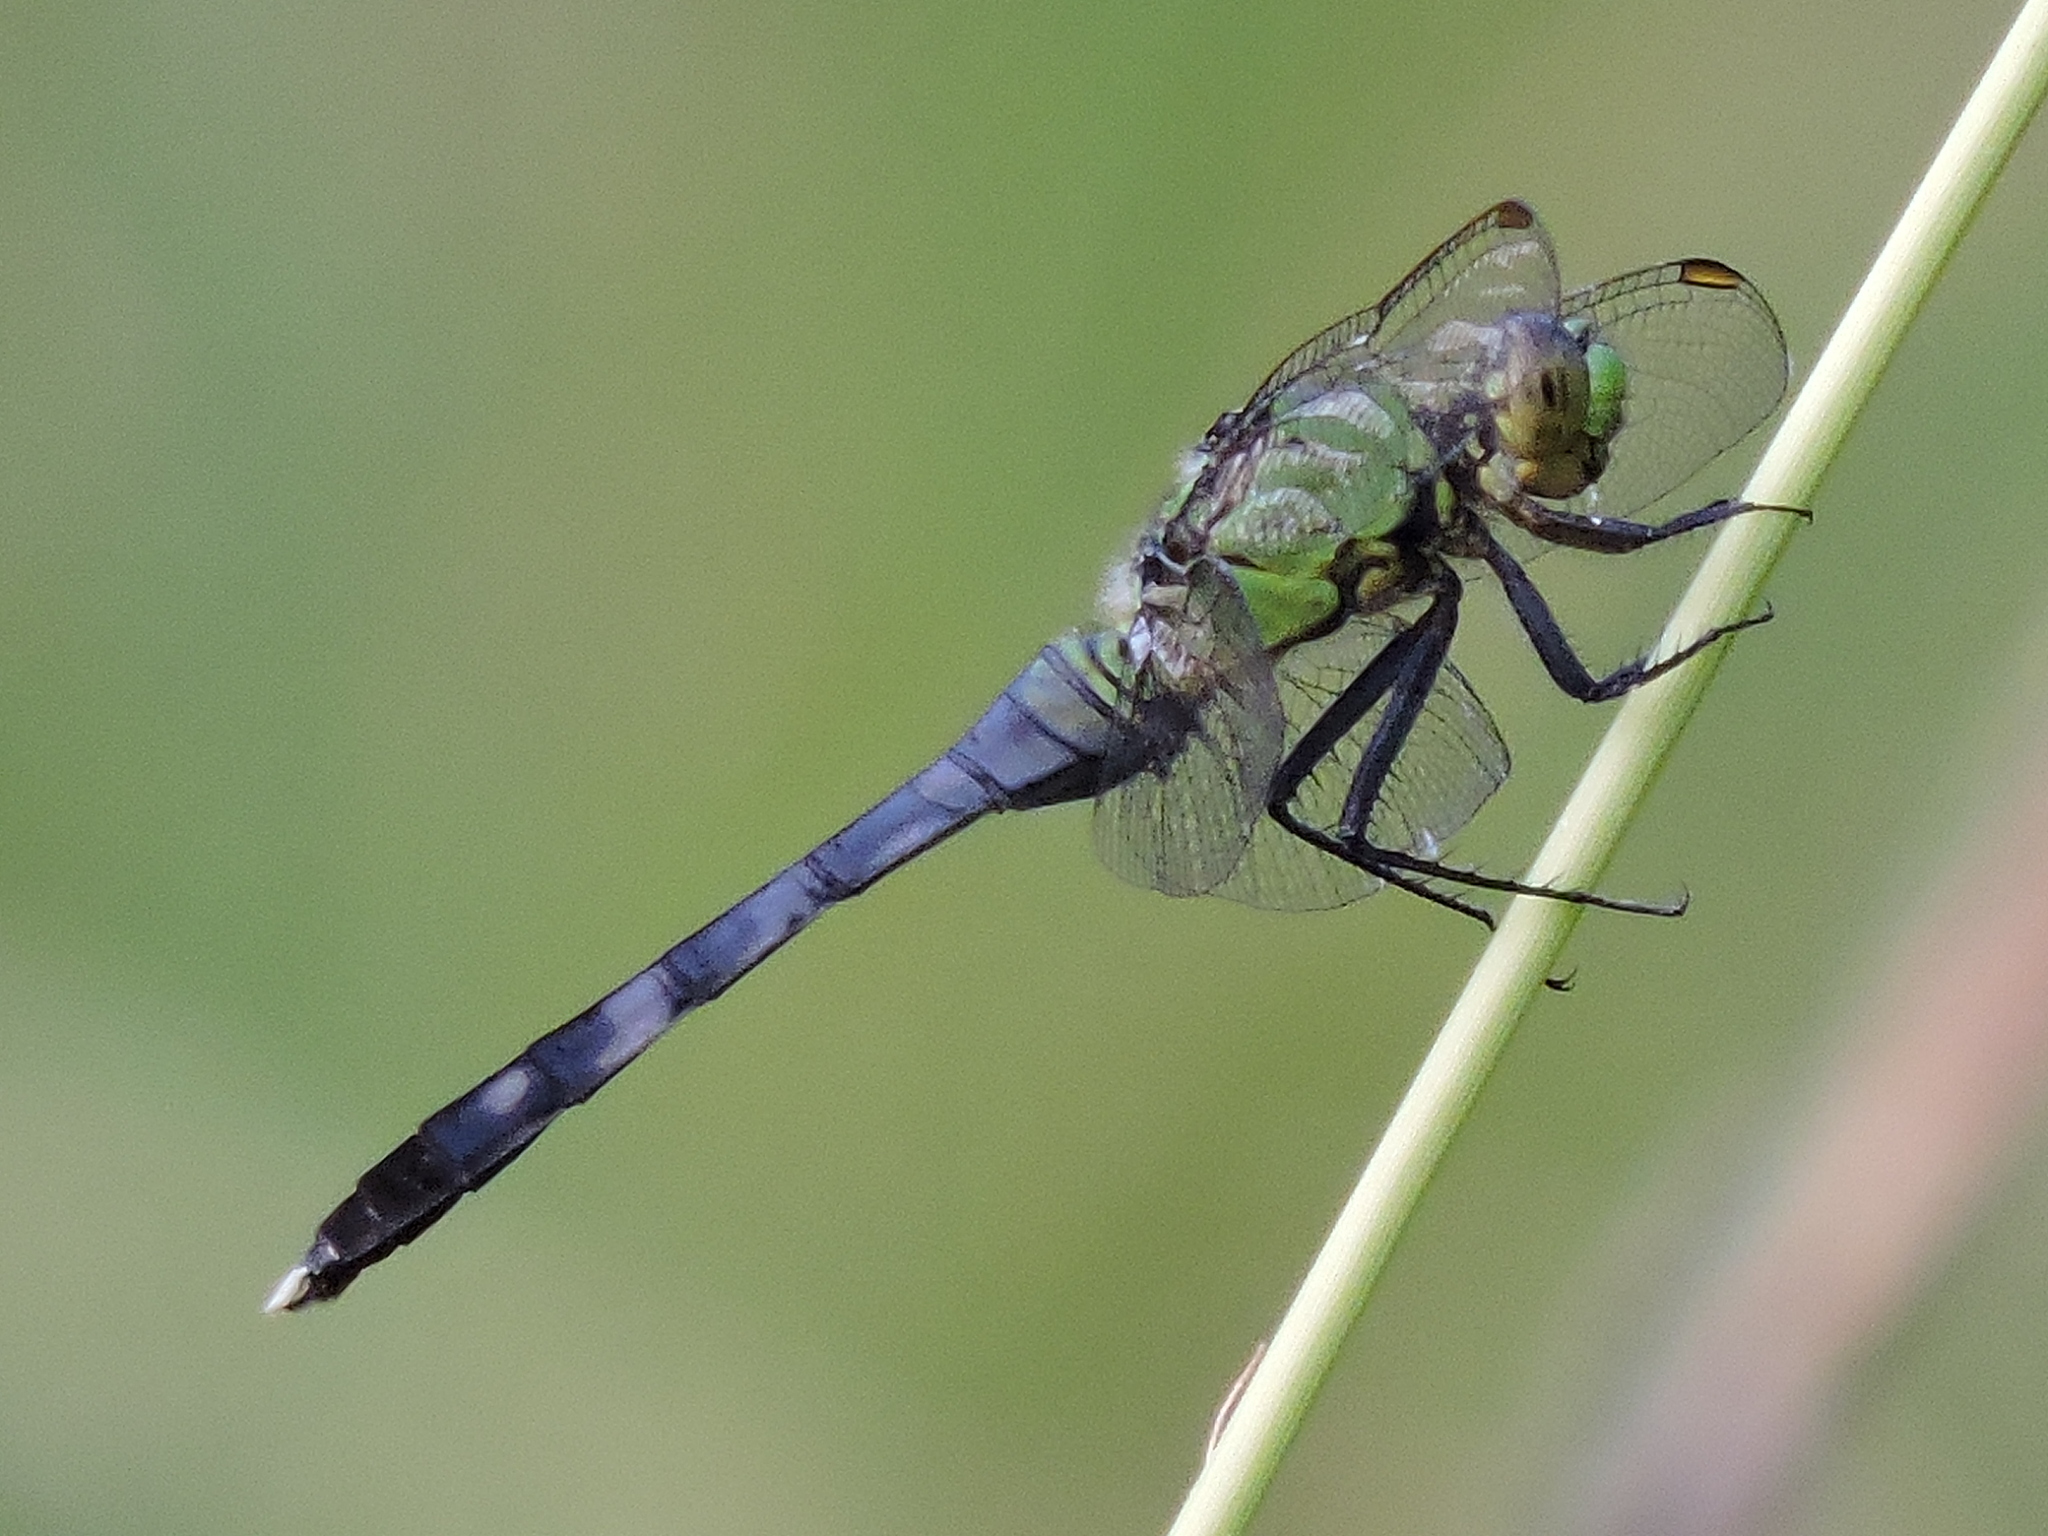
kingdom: Animalia
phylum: Arthropoda
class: Insecta
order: Odonata
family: Libellulidae
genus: Erythemis
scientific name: Erythemis simplicicollis
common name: Eastern pondhawk
